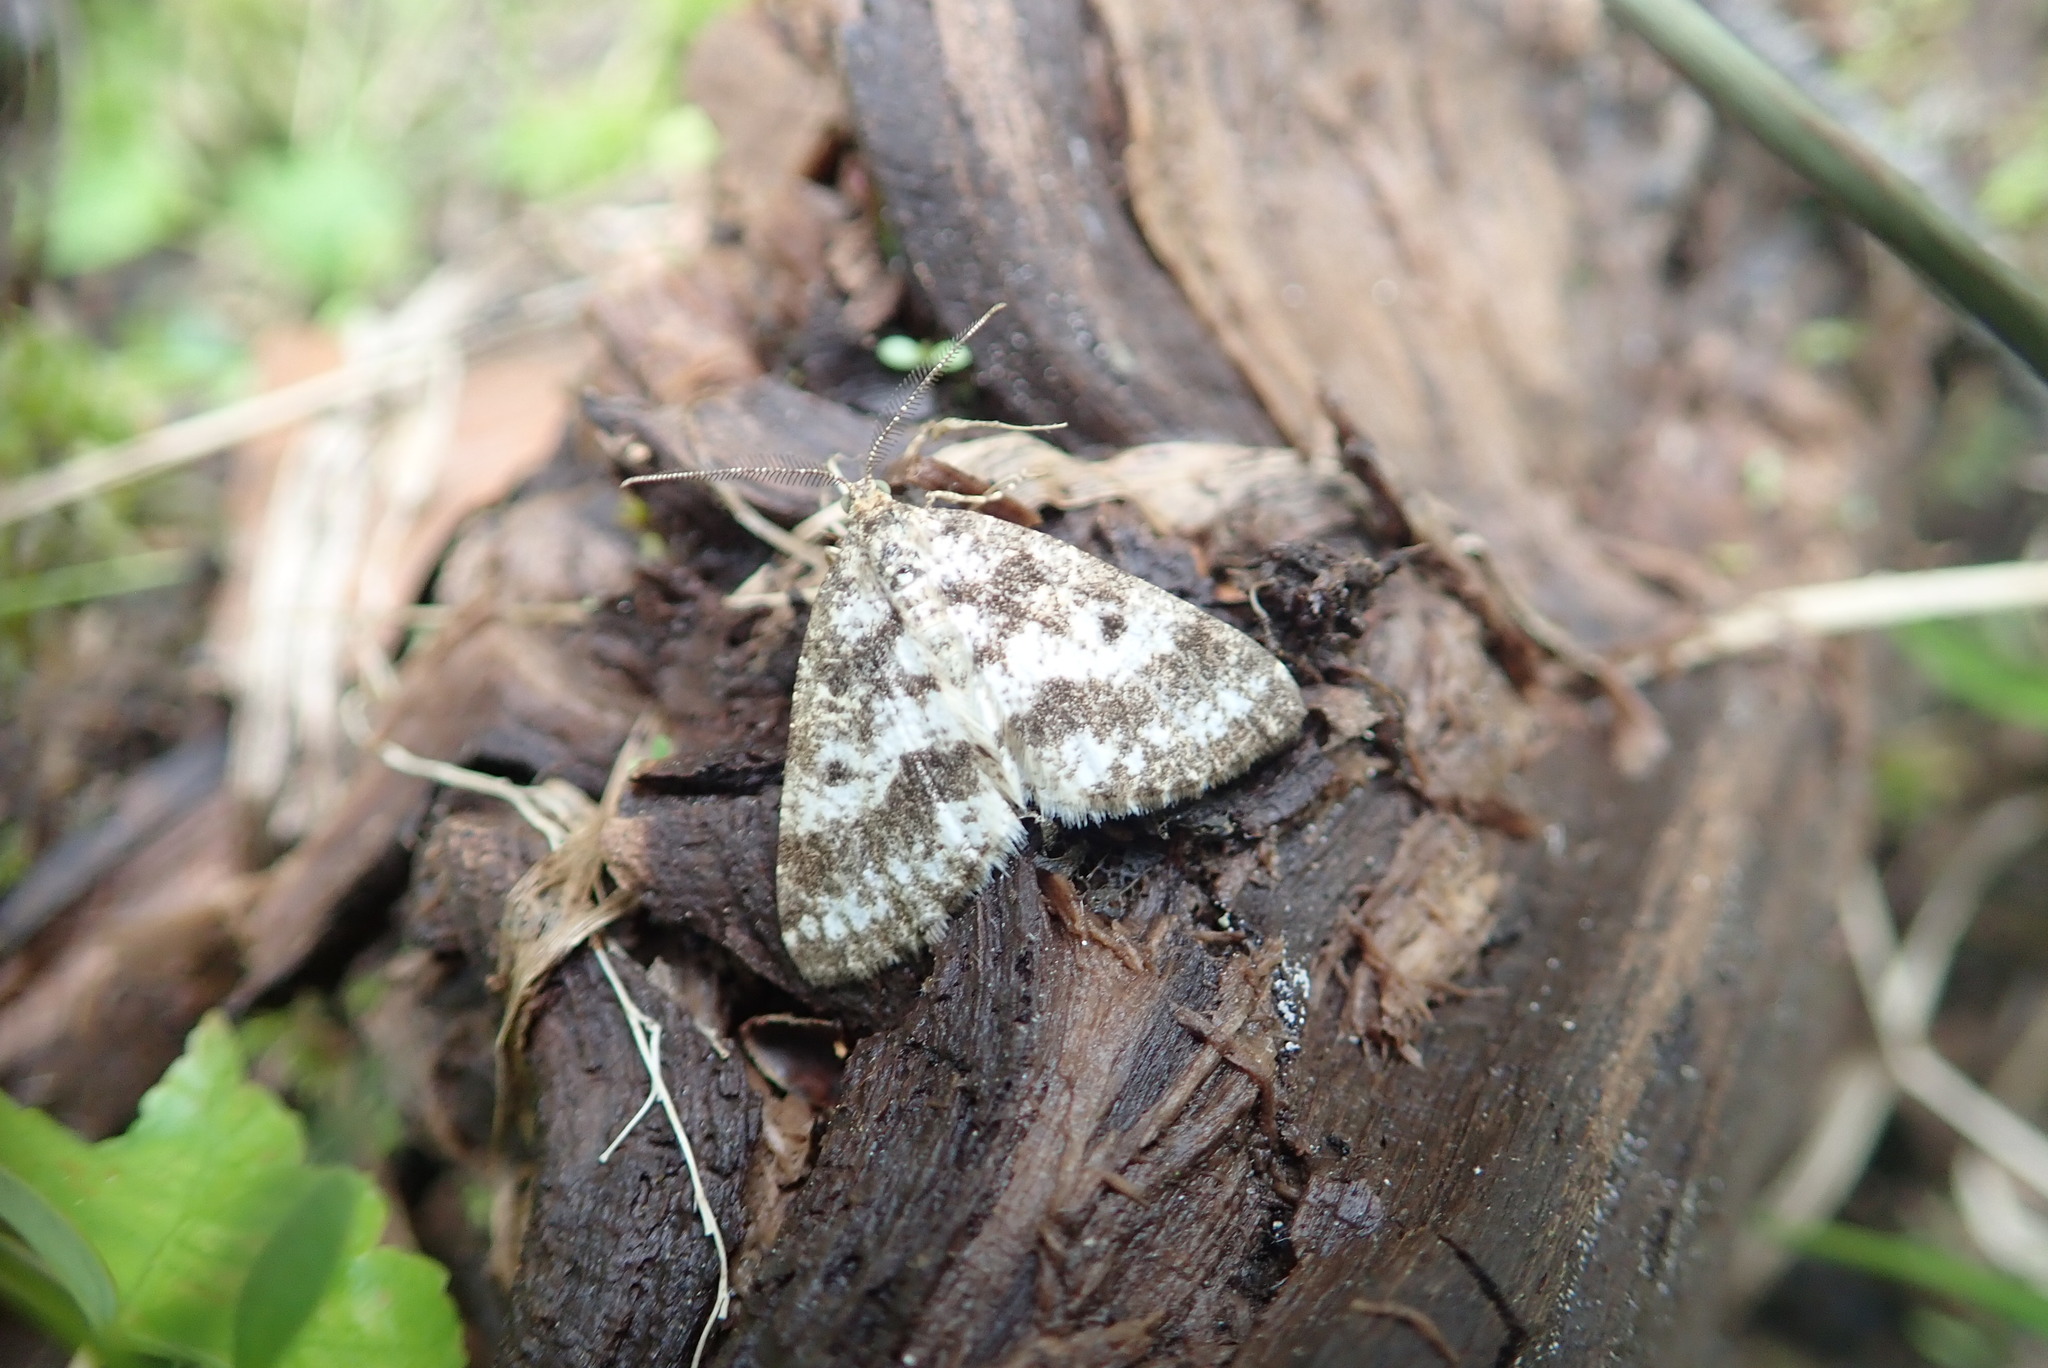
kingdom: Animalia
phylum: Arthropoda
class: Insecta
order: Lepidoptera
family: Geometridae
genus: Eufidonia
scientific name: Eufidonia notataria
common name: Powder moth
